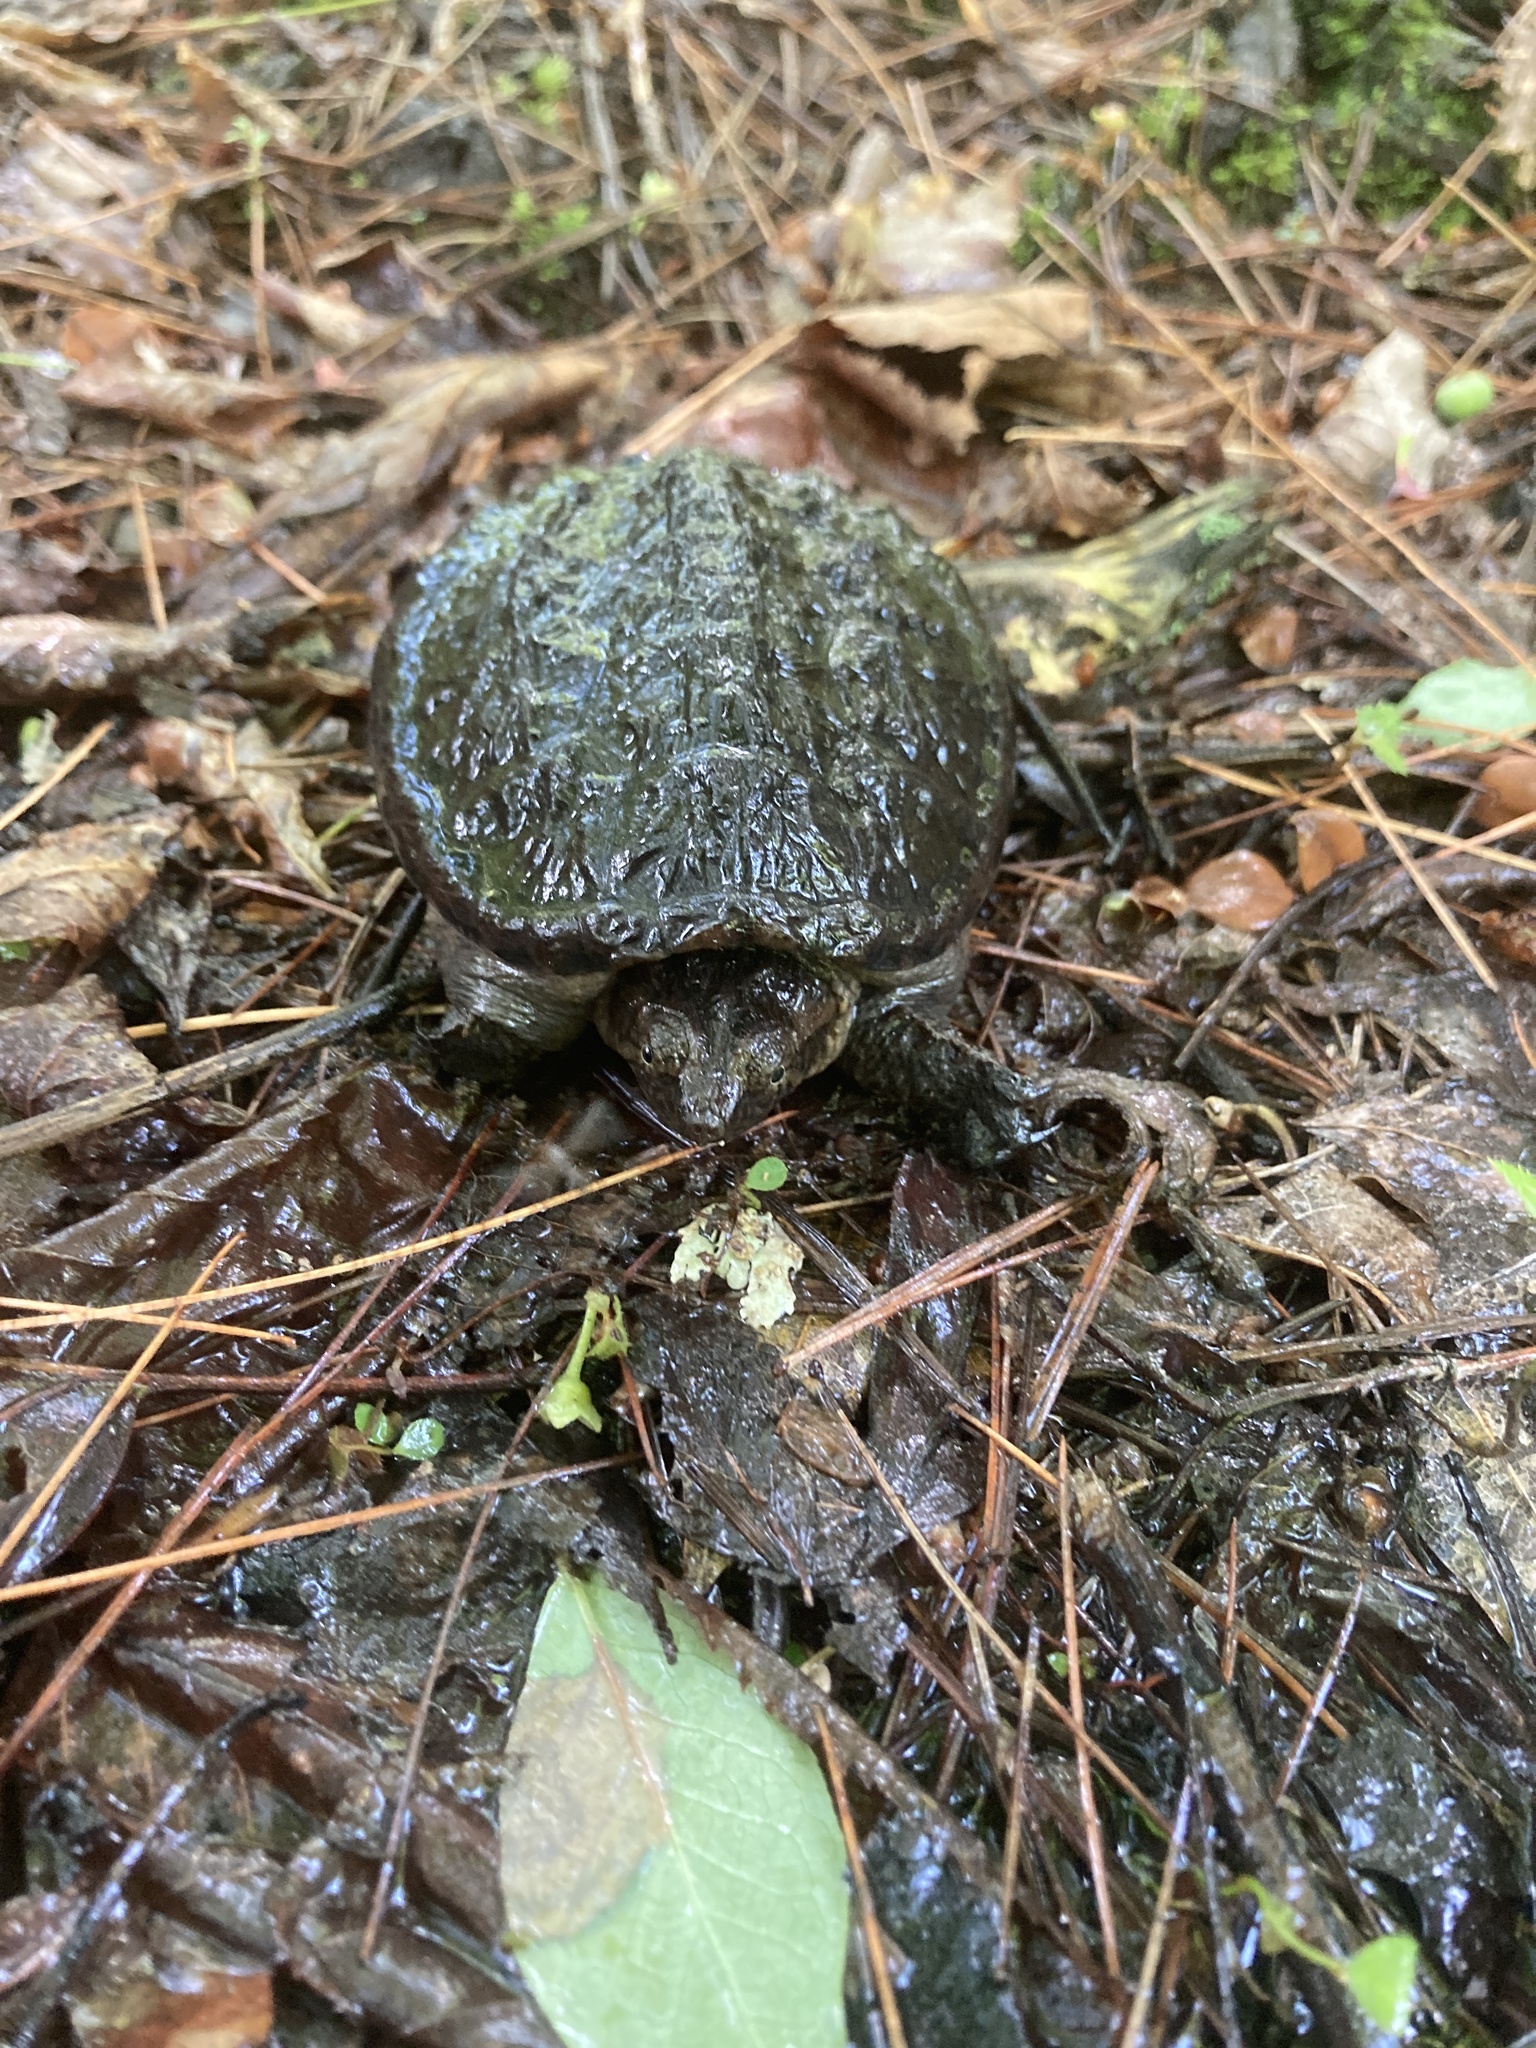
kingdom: Animalia
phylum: Chordata
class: Testudines
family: Chelydridae
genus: Chelydra
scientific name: Chelydra serpentina
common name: Common snapping turtle
